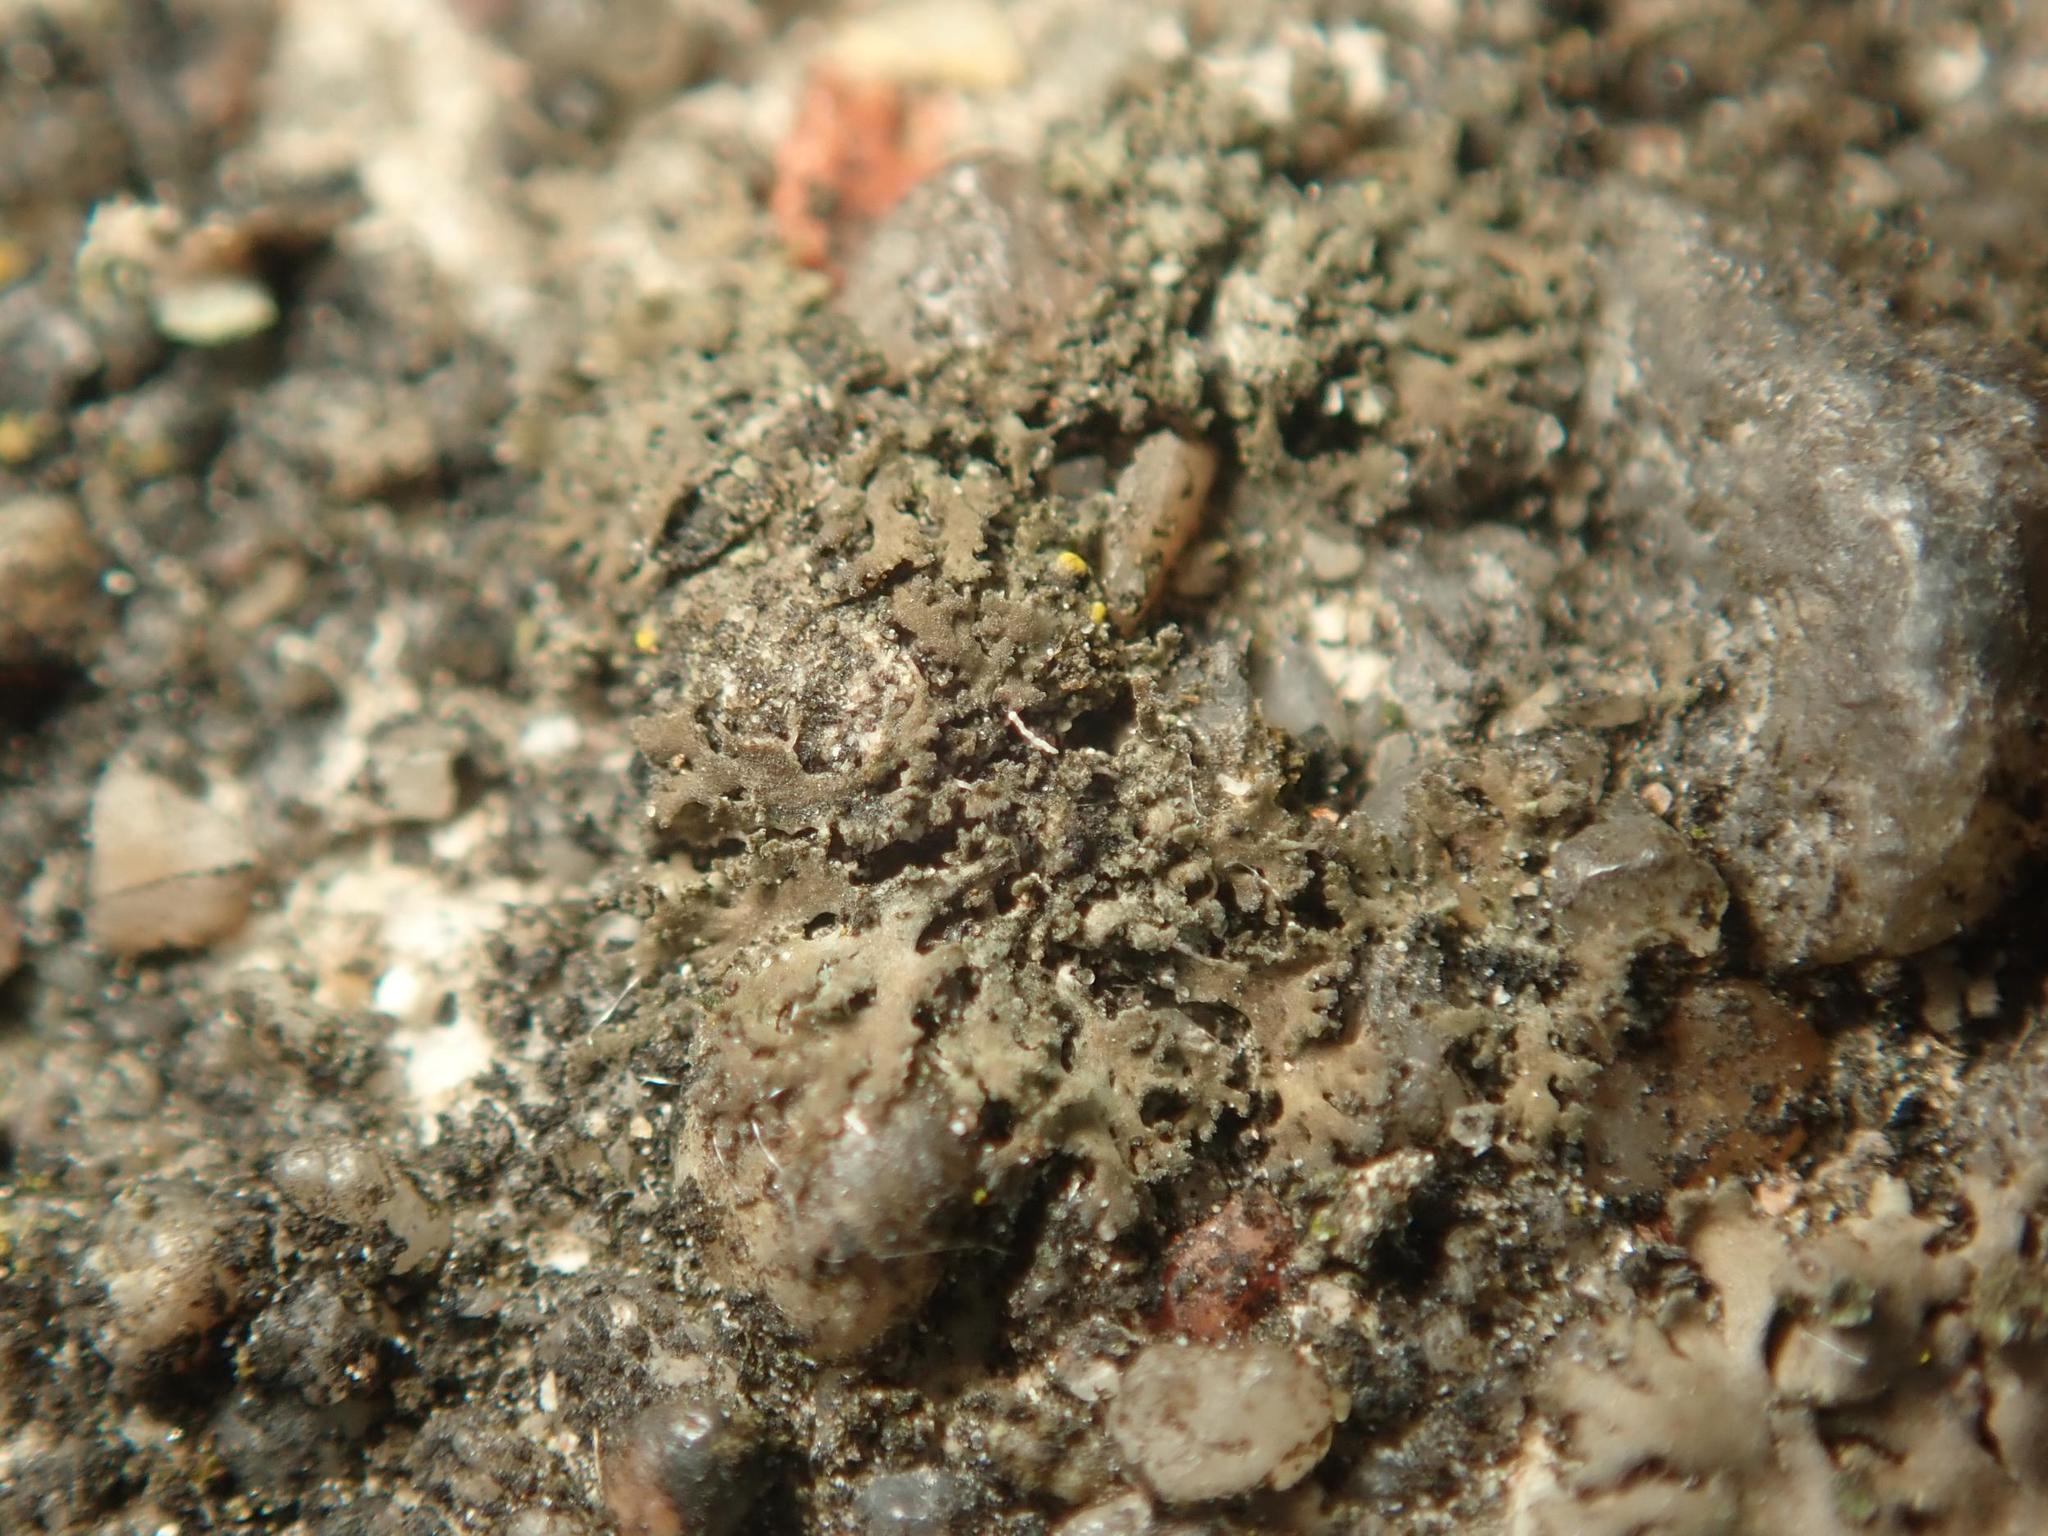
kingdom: Fungi
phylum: Ascomycota
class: Lecanoromycetes
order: Caliciales
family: Physciaceae
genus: Physciella
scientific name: Physciella nigricans
